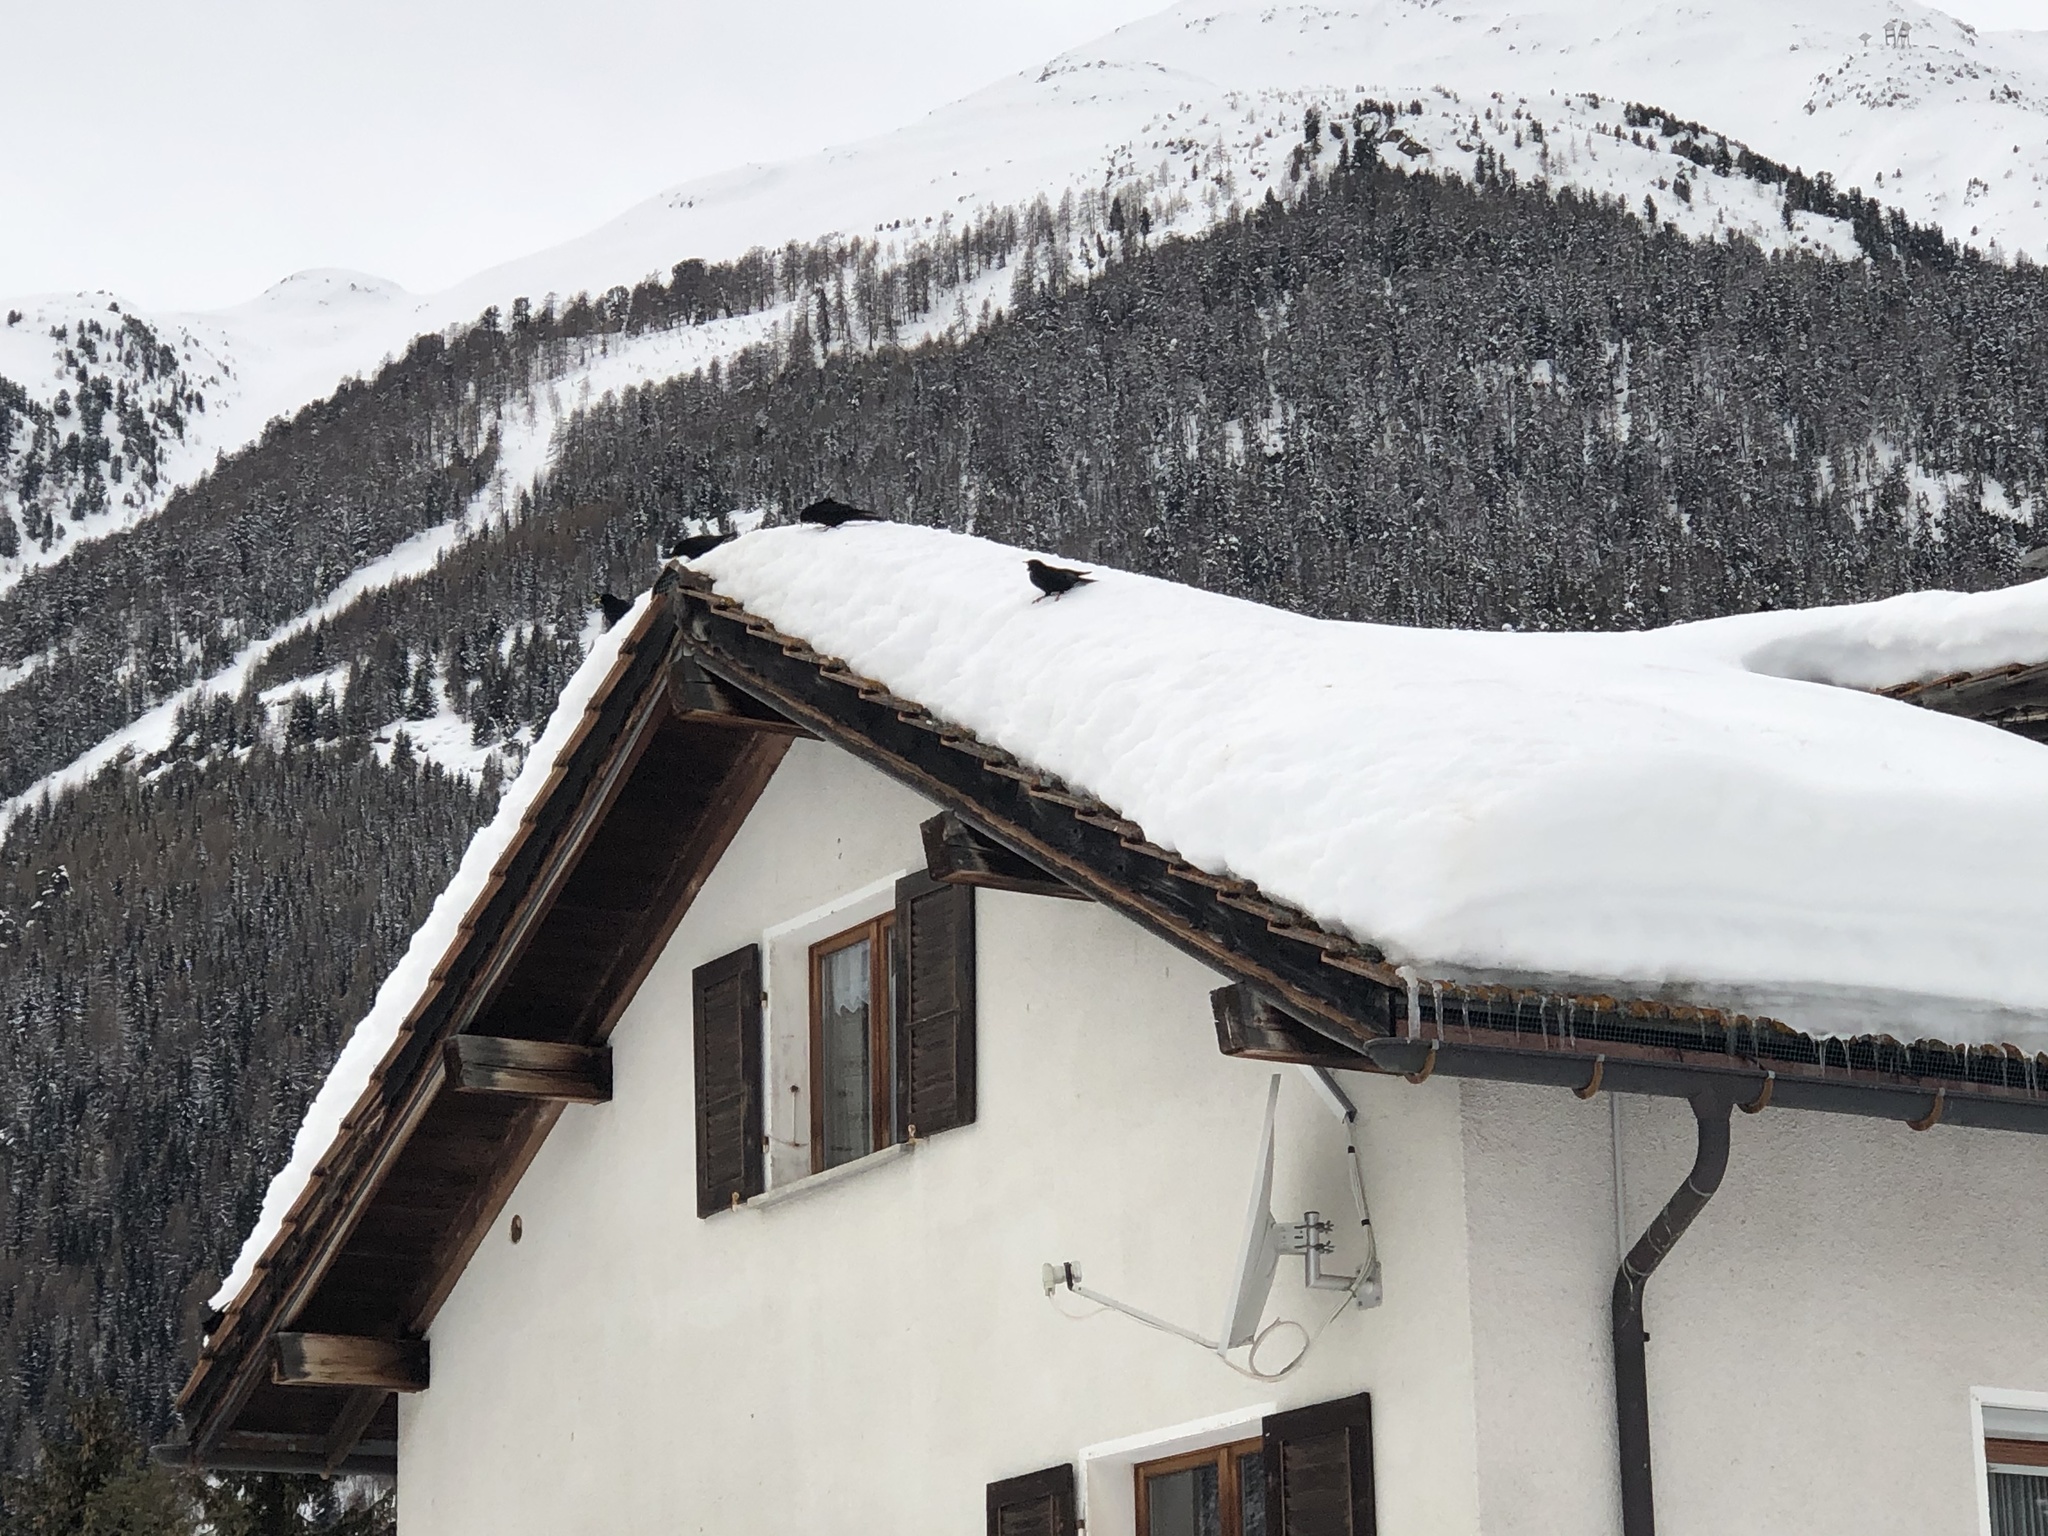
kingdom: Animalia
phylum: Chordata
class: Aves
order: Passeriformes
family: Corvidae
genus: Pyrrhocorax
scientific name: Pyrrhocorax graculus
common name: Alpine chough
